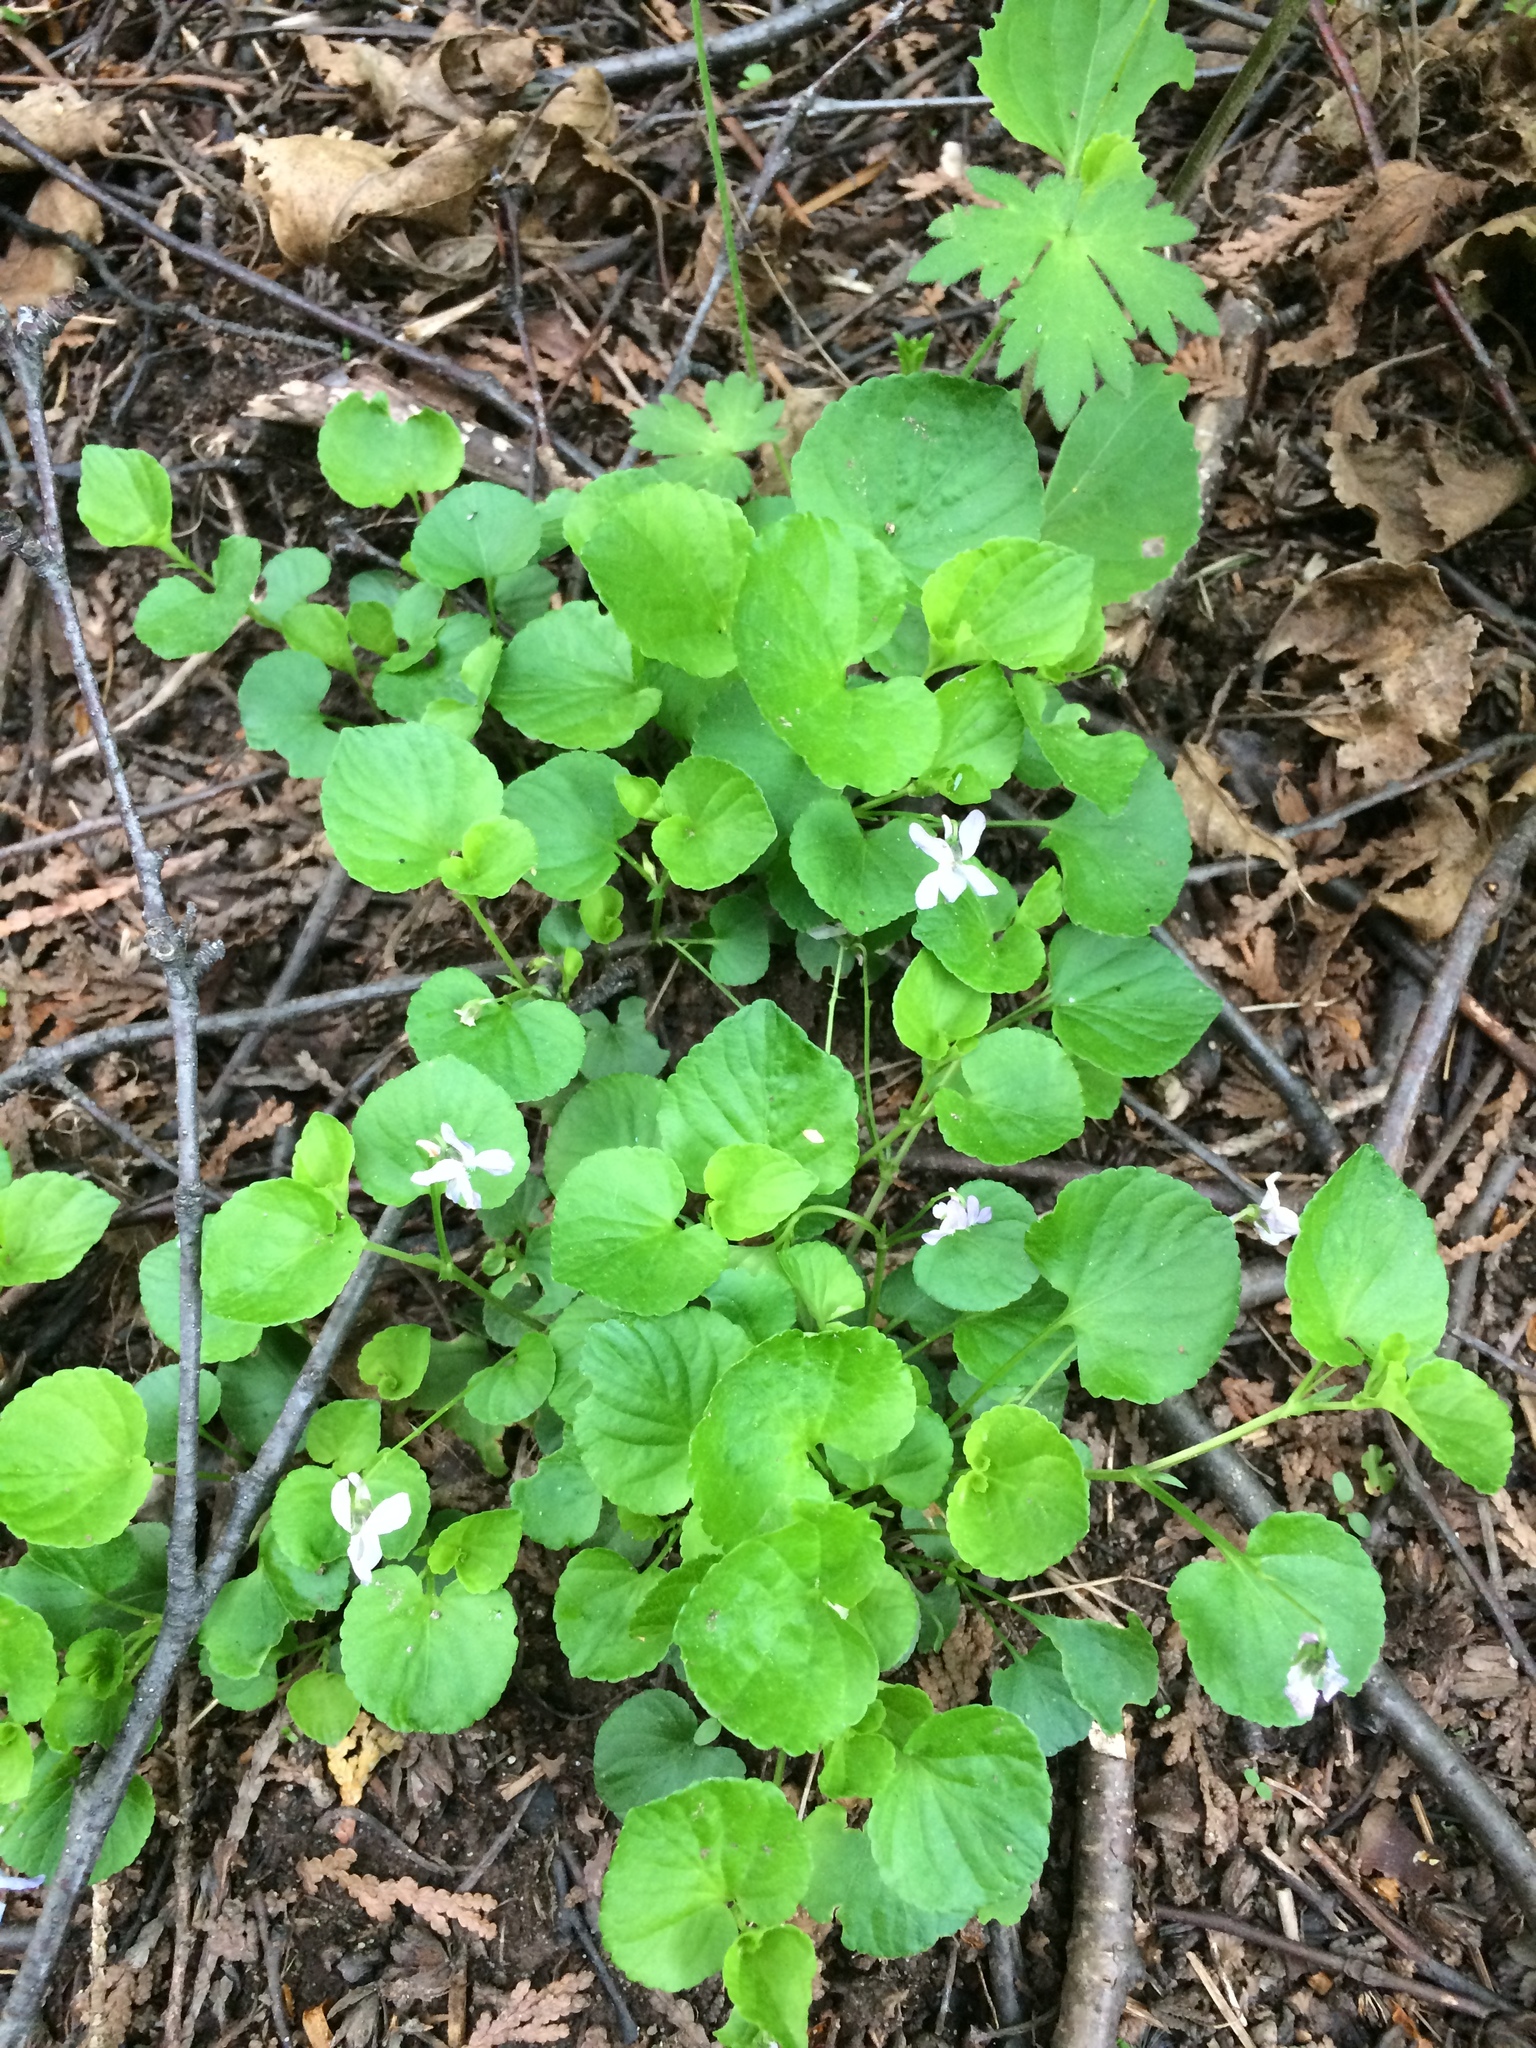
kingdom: Plantae
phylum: Tracheophyta
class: Magnoliopsida
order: Malpighiales
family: Violaceae
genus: Viola
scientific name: Viola labradorica
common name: Labrador violet
